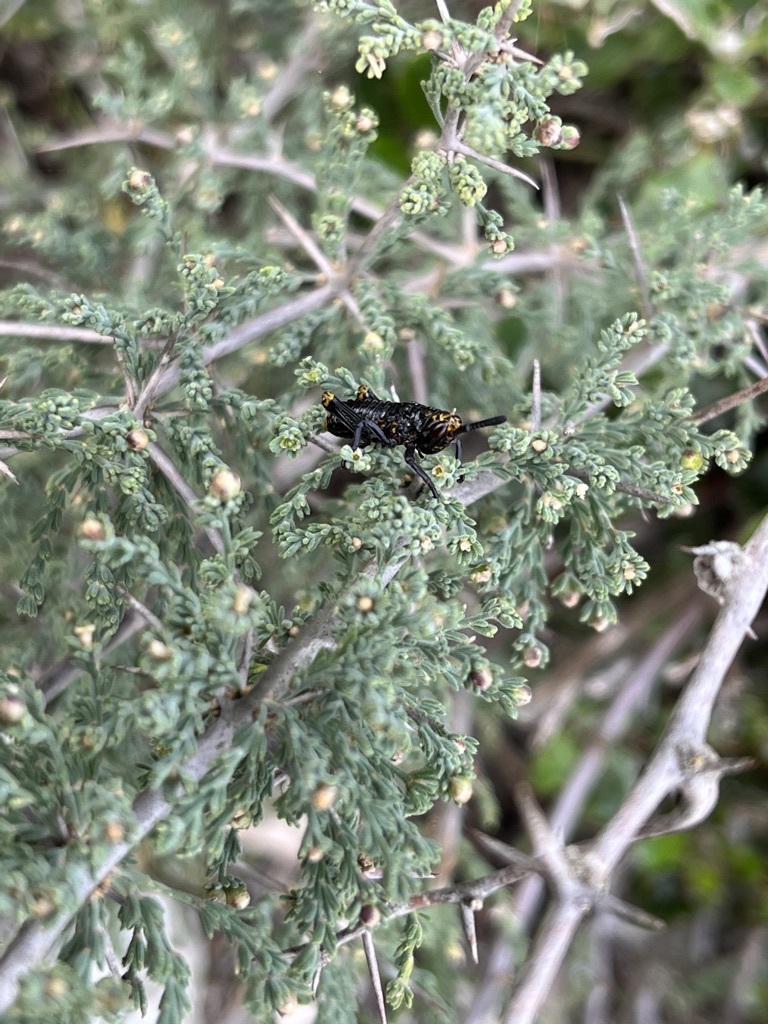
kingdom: Animalia
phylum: Arthropoda
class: Insecta
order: Orthoptera
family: Pyrgomorphidae
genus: Dictyophorus
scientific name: Dictyophorus spumans
